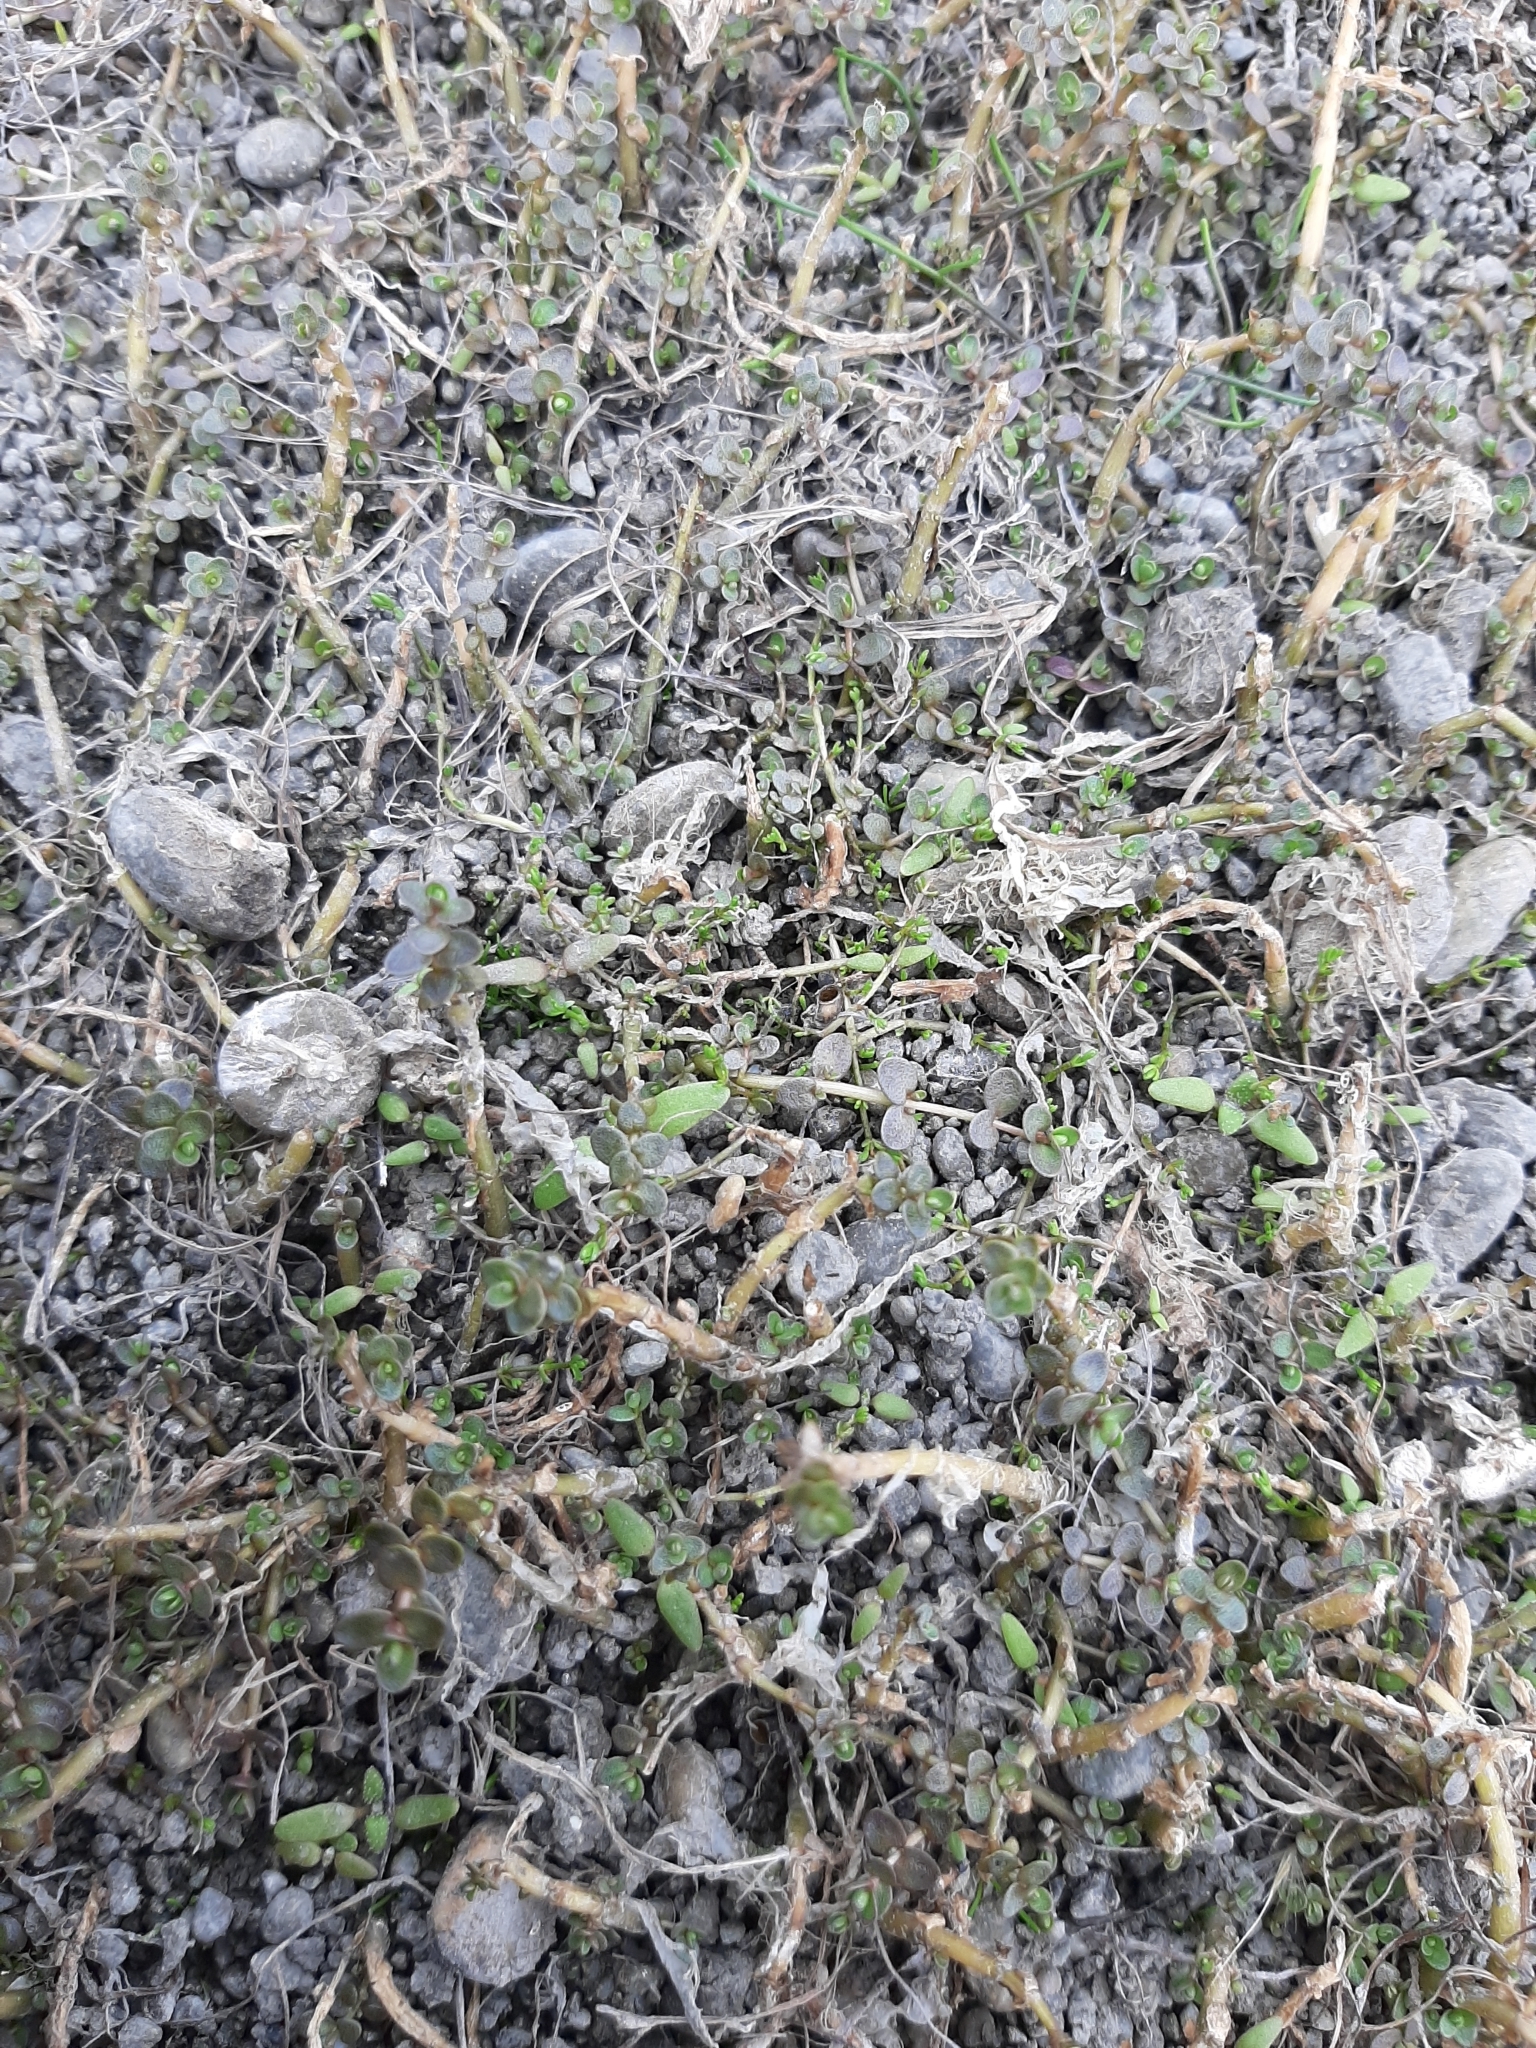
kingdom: Plantae
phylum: Tracheophyta
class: Magnoliopsida
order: Lamiales
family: Phrymaceae
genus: Thyridia
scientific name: Thyridia repens
